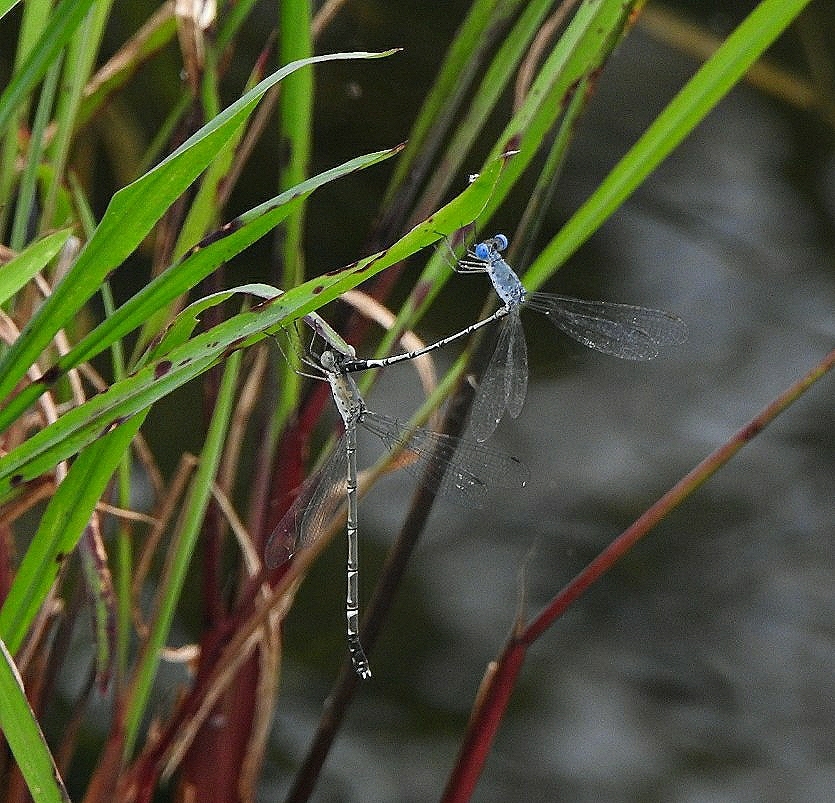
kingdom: Animalia
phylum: Arthropoda
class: Insecta
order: Odonata
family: Lestidae
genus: Lestes
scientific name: Lestes praemorsus
